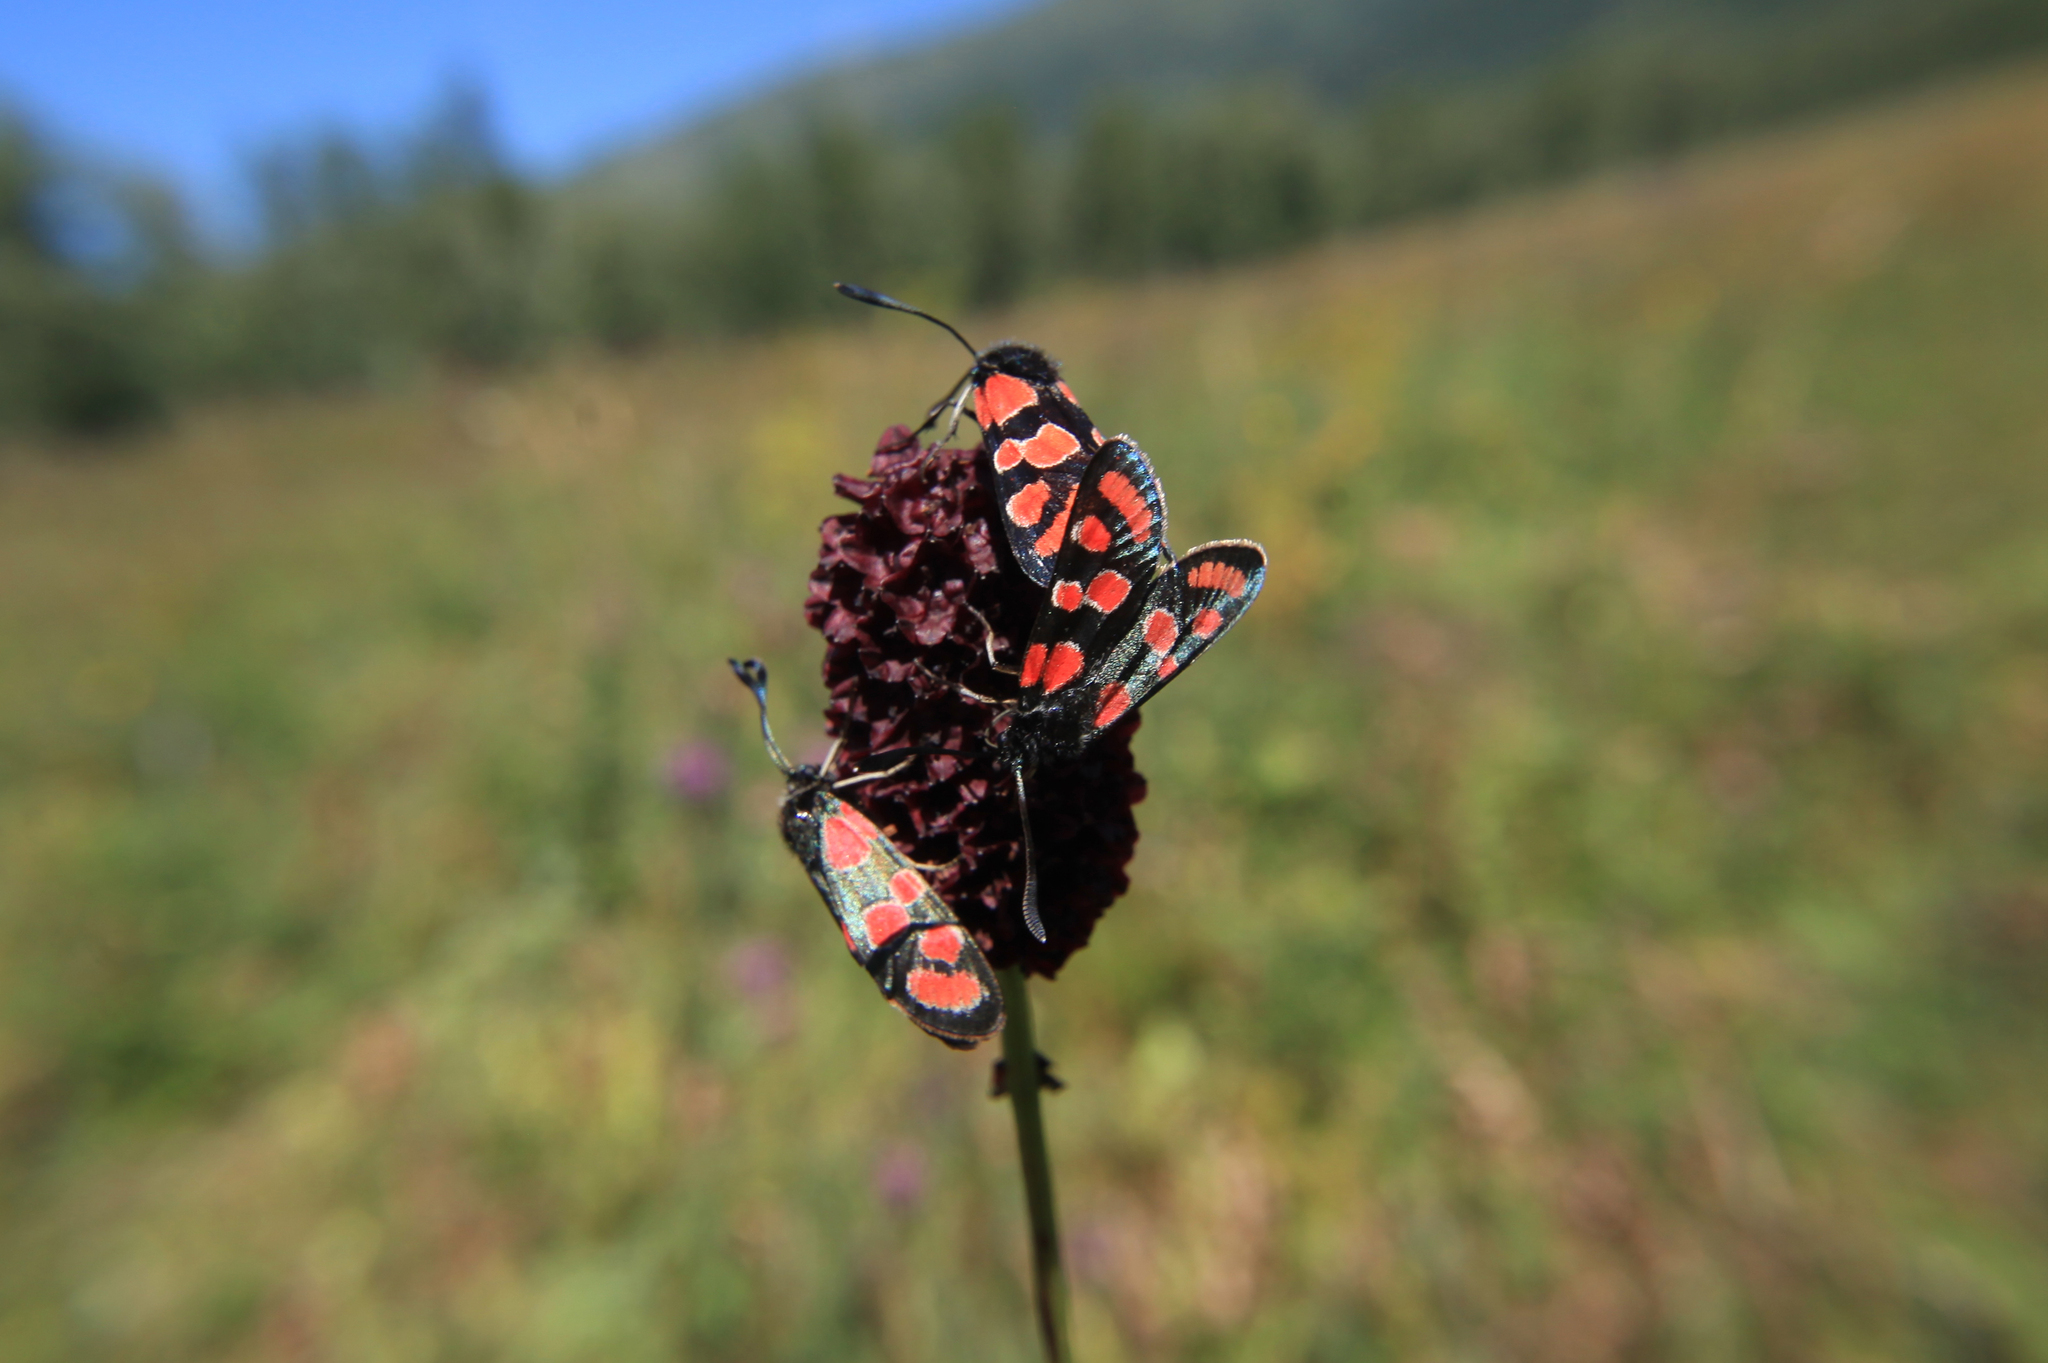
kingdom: Animalia
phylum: Arthropoda
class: Insecta
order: Lepidoptera
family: Zygaenidae
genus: Zygaena
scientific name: Zygaena carniolica
